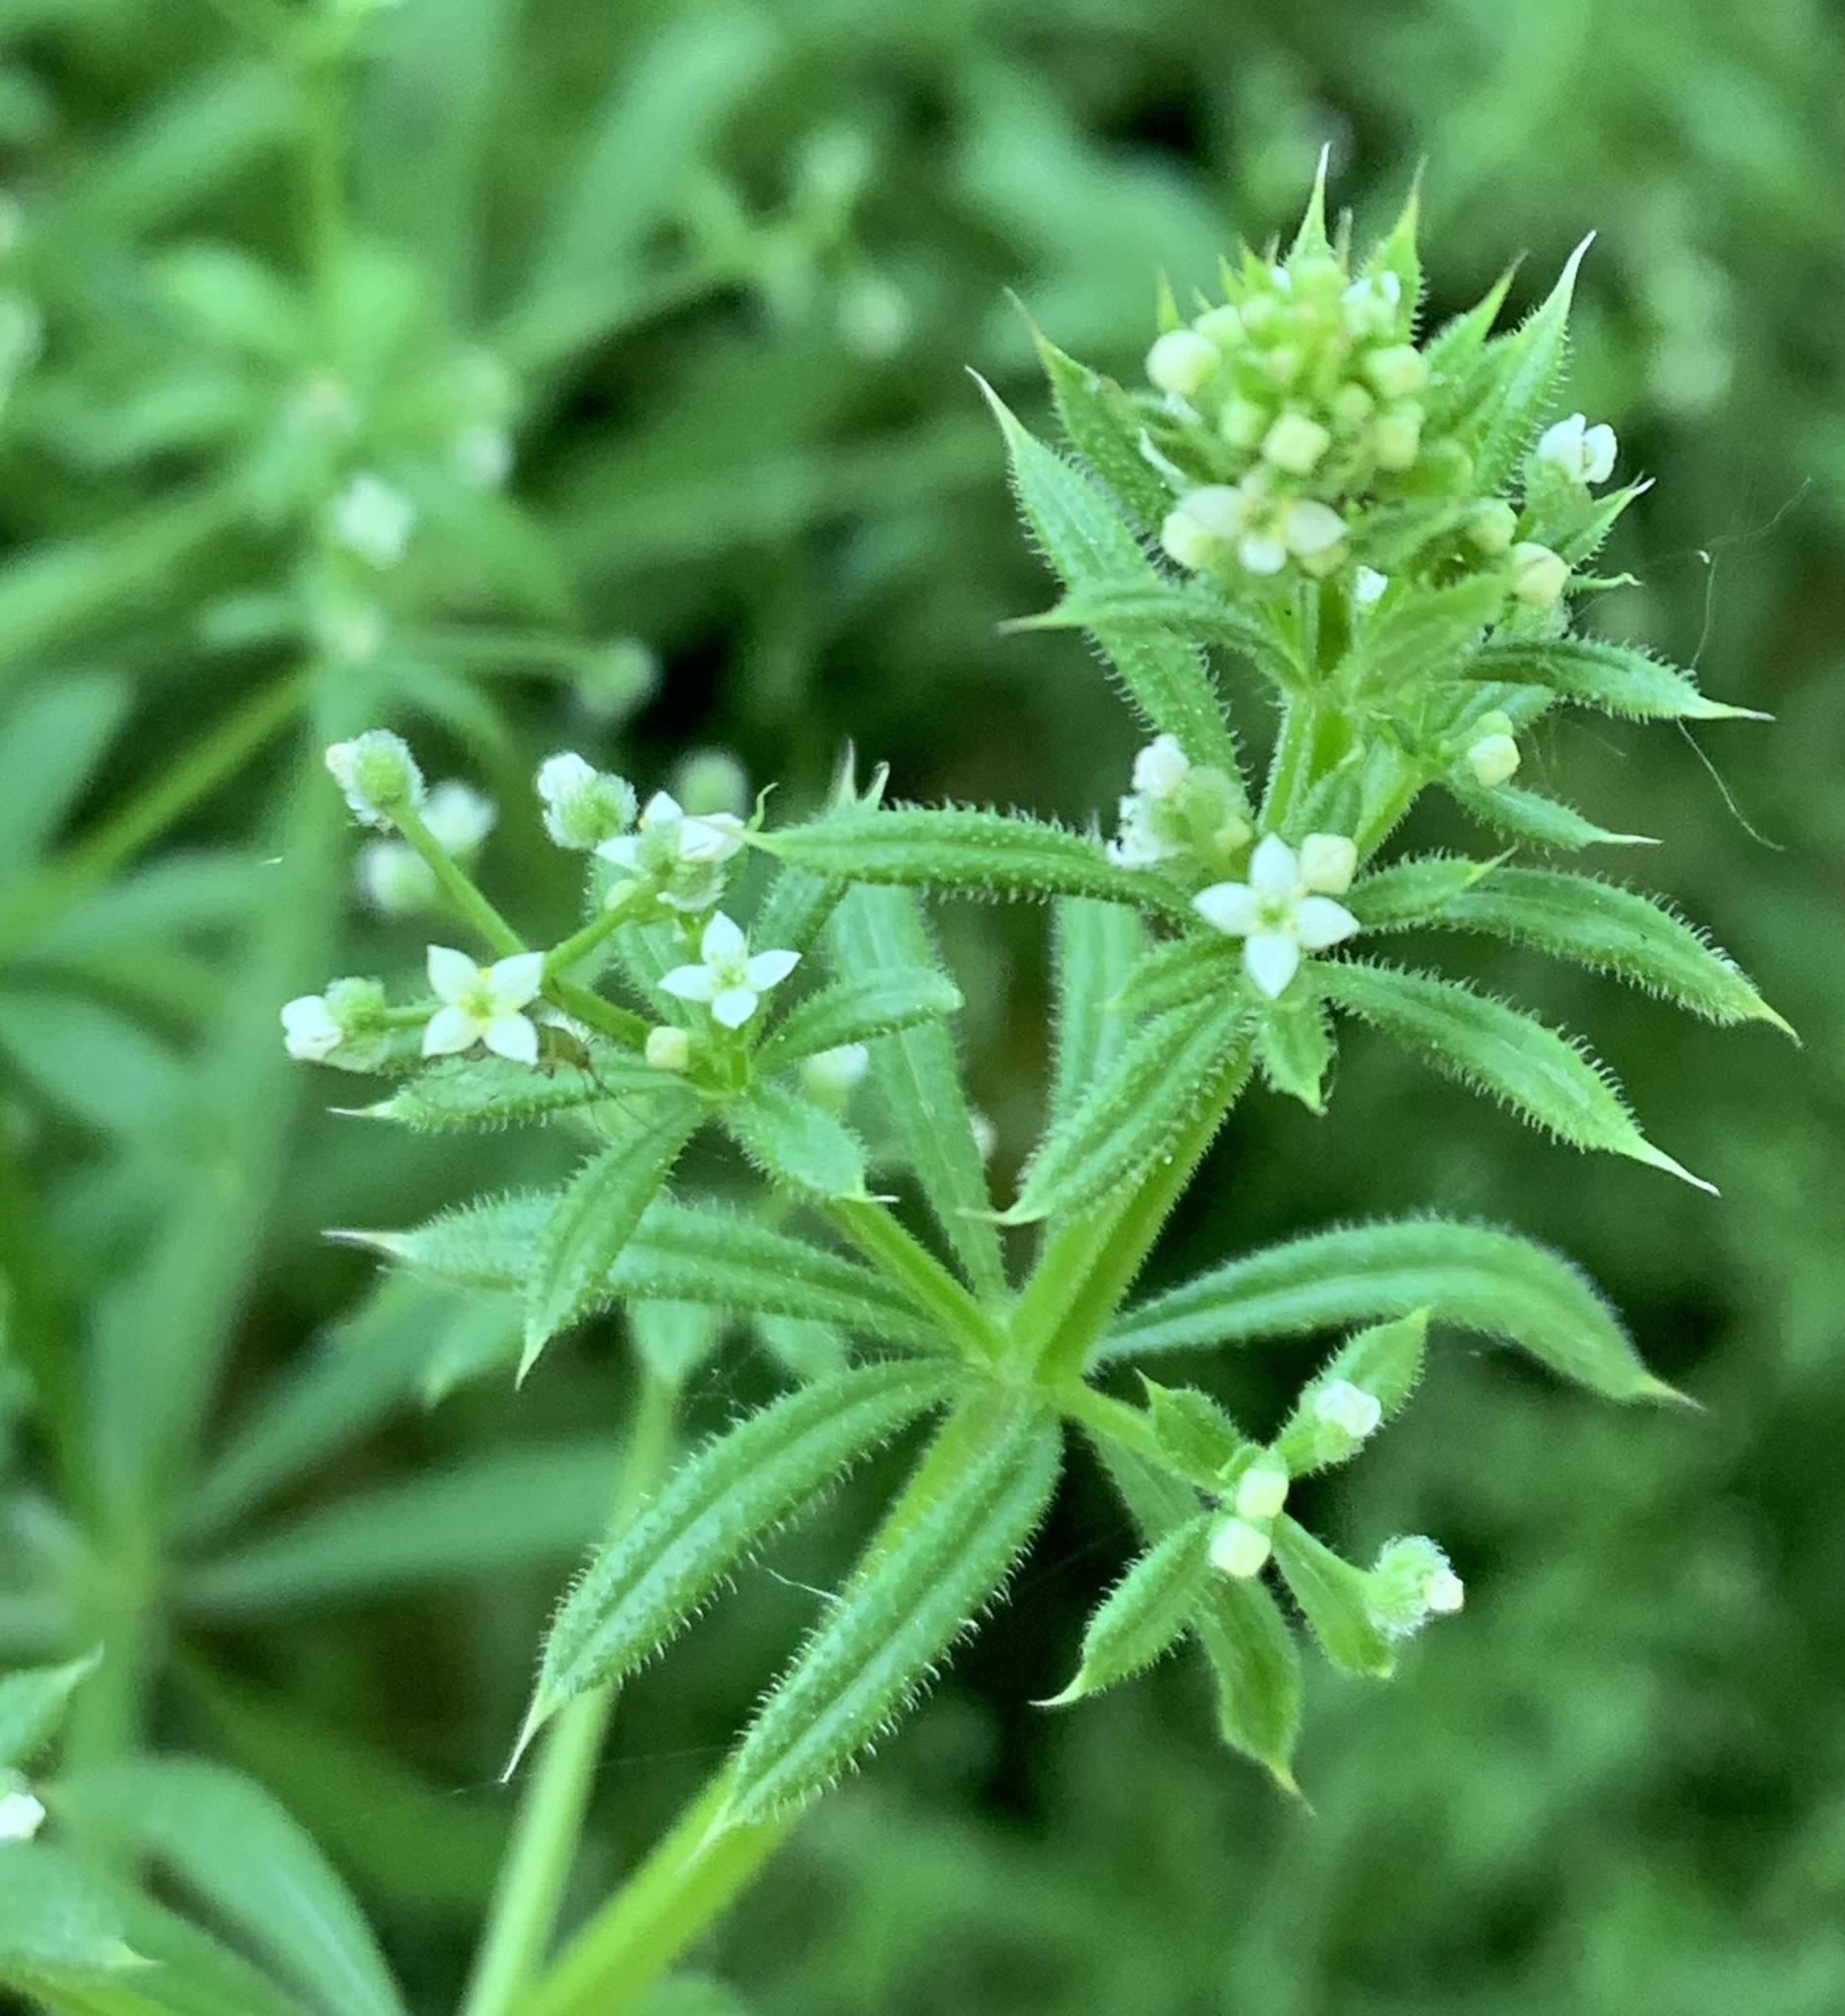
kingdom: Plantae
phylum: Tracheophyta
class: Magnoliopsida
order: Gentianales
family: Rubiaceae
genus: Galium
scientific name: Galium aparine
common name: Cleavers
